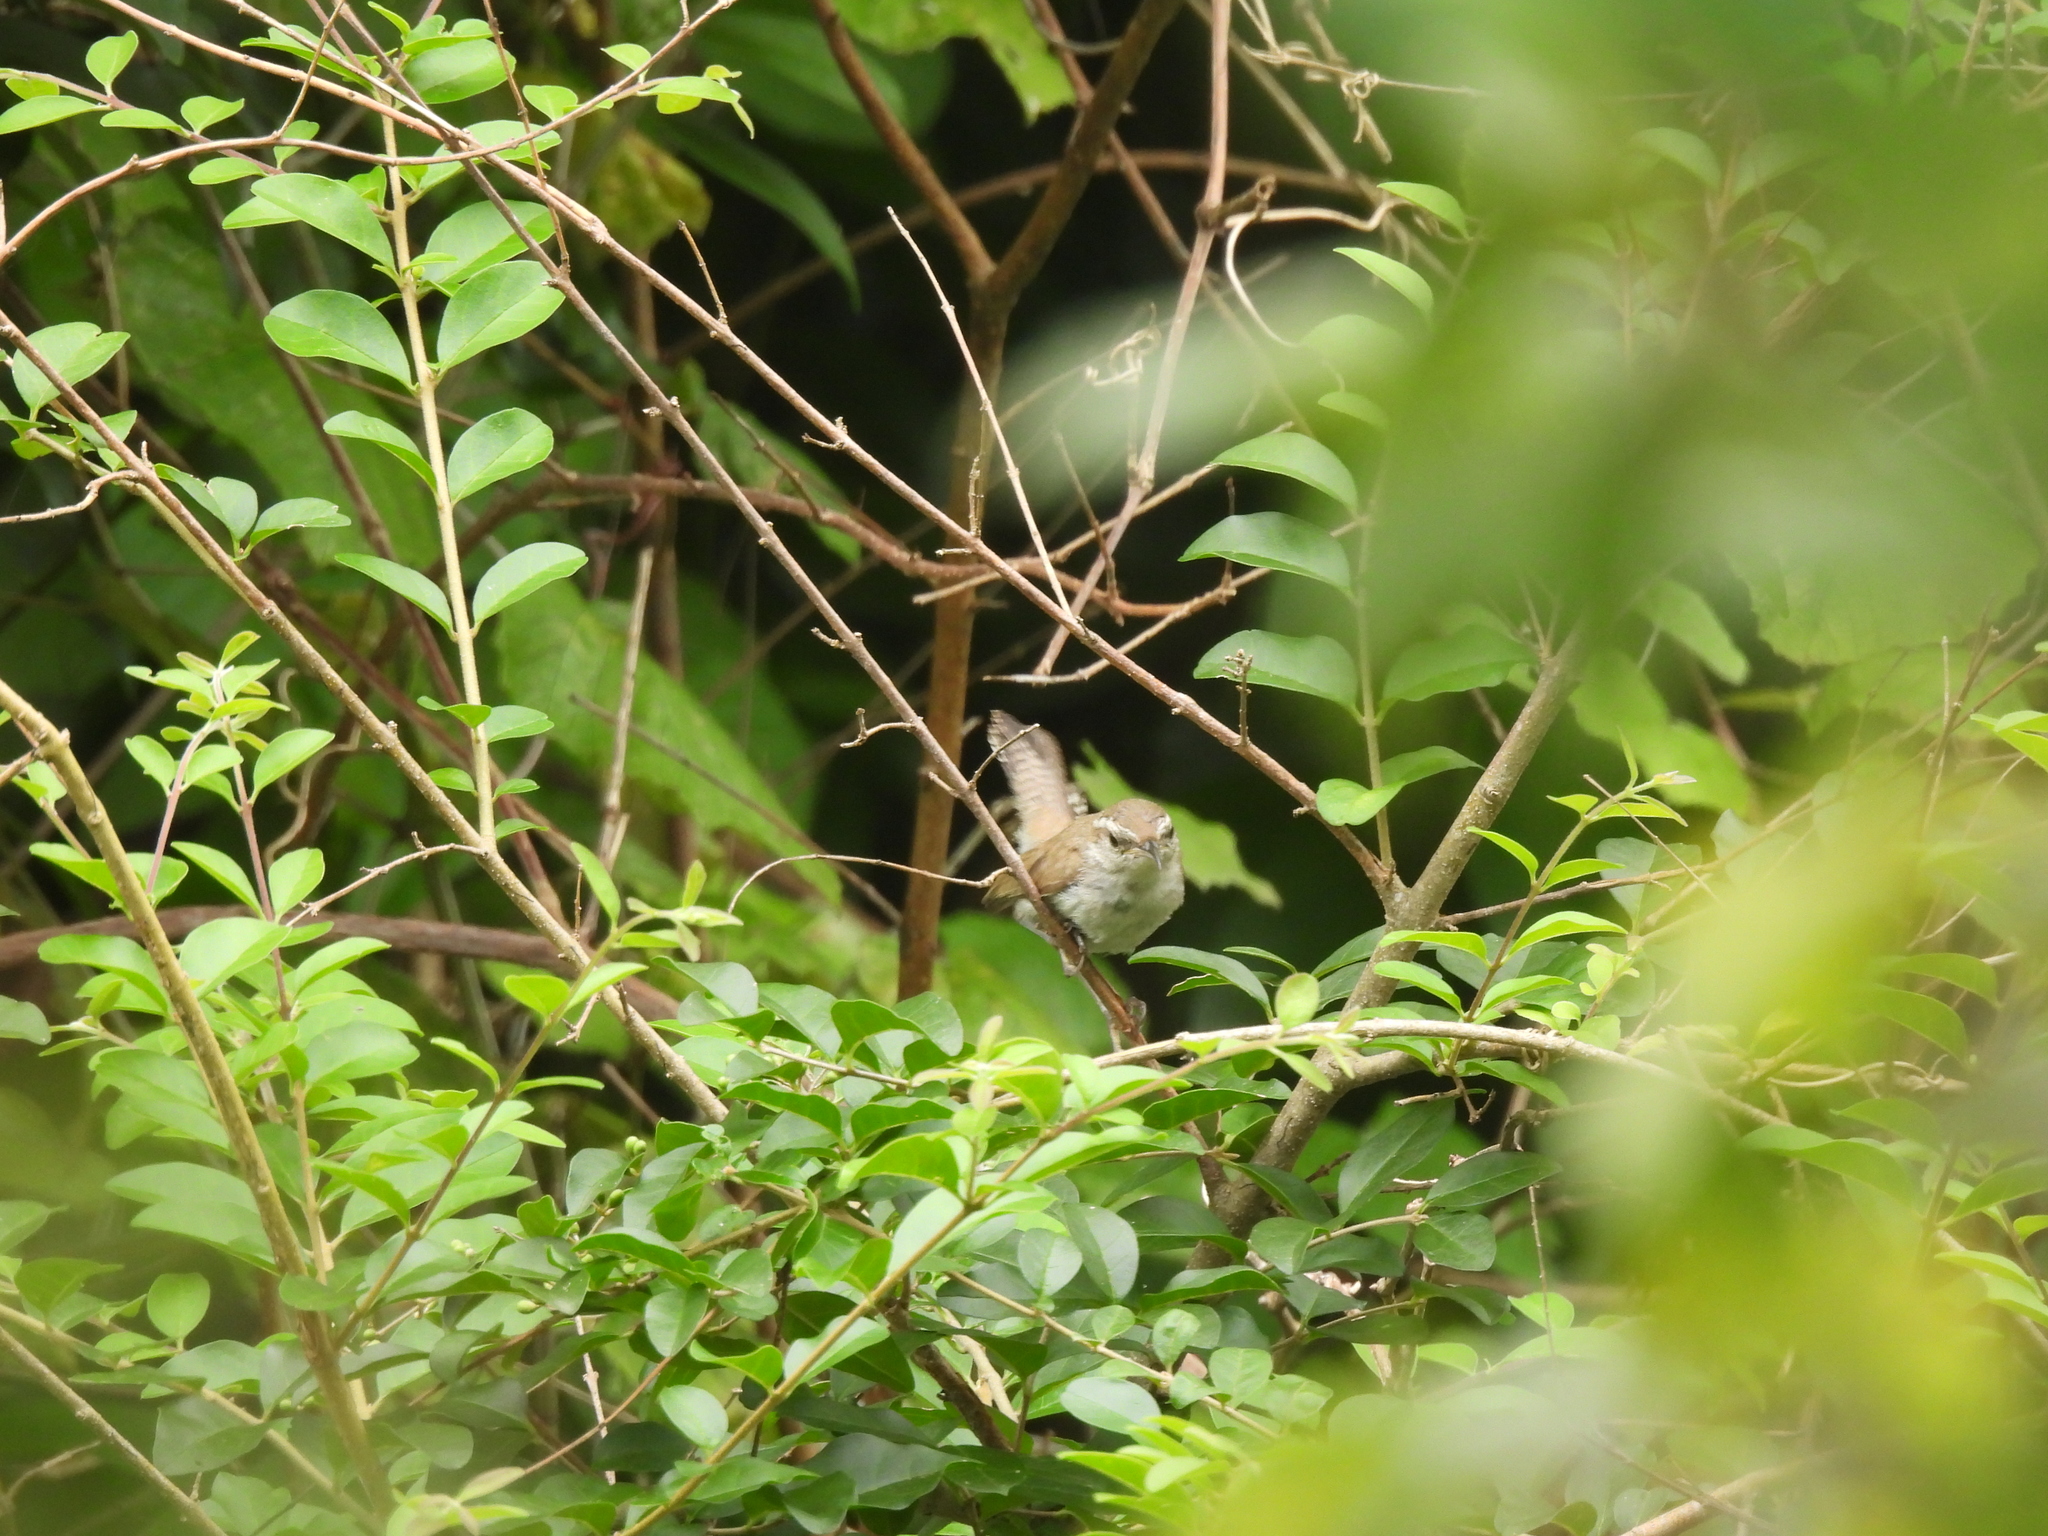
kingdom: Animalia
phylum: Chordata
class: Aves
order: Passeriformes
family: Troglodytidae
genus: Thryomanes
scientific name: Thryomanes bewickii
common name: Bewick's wren
